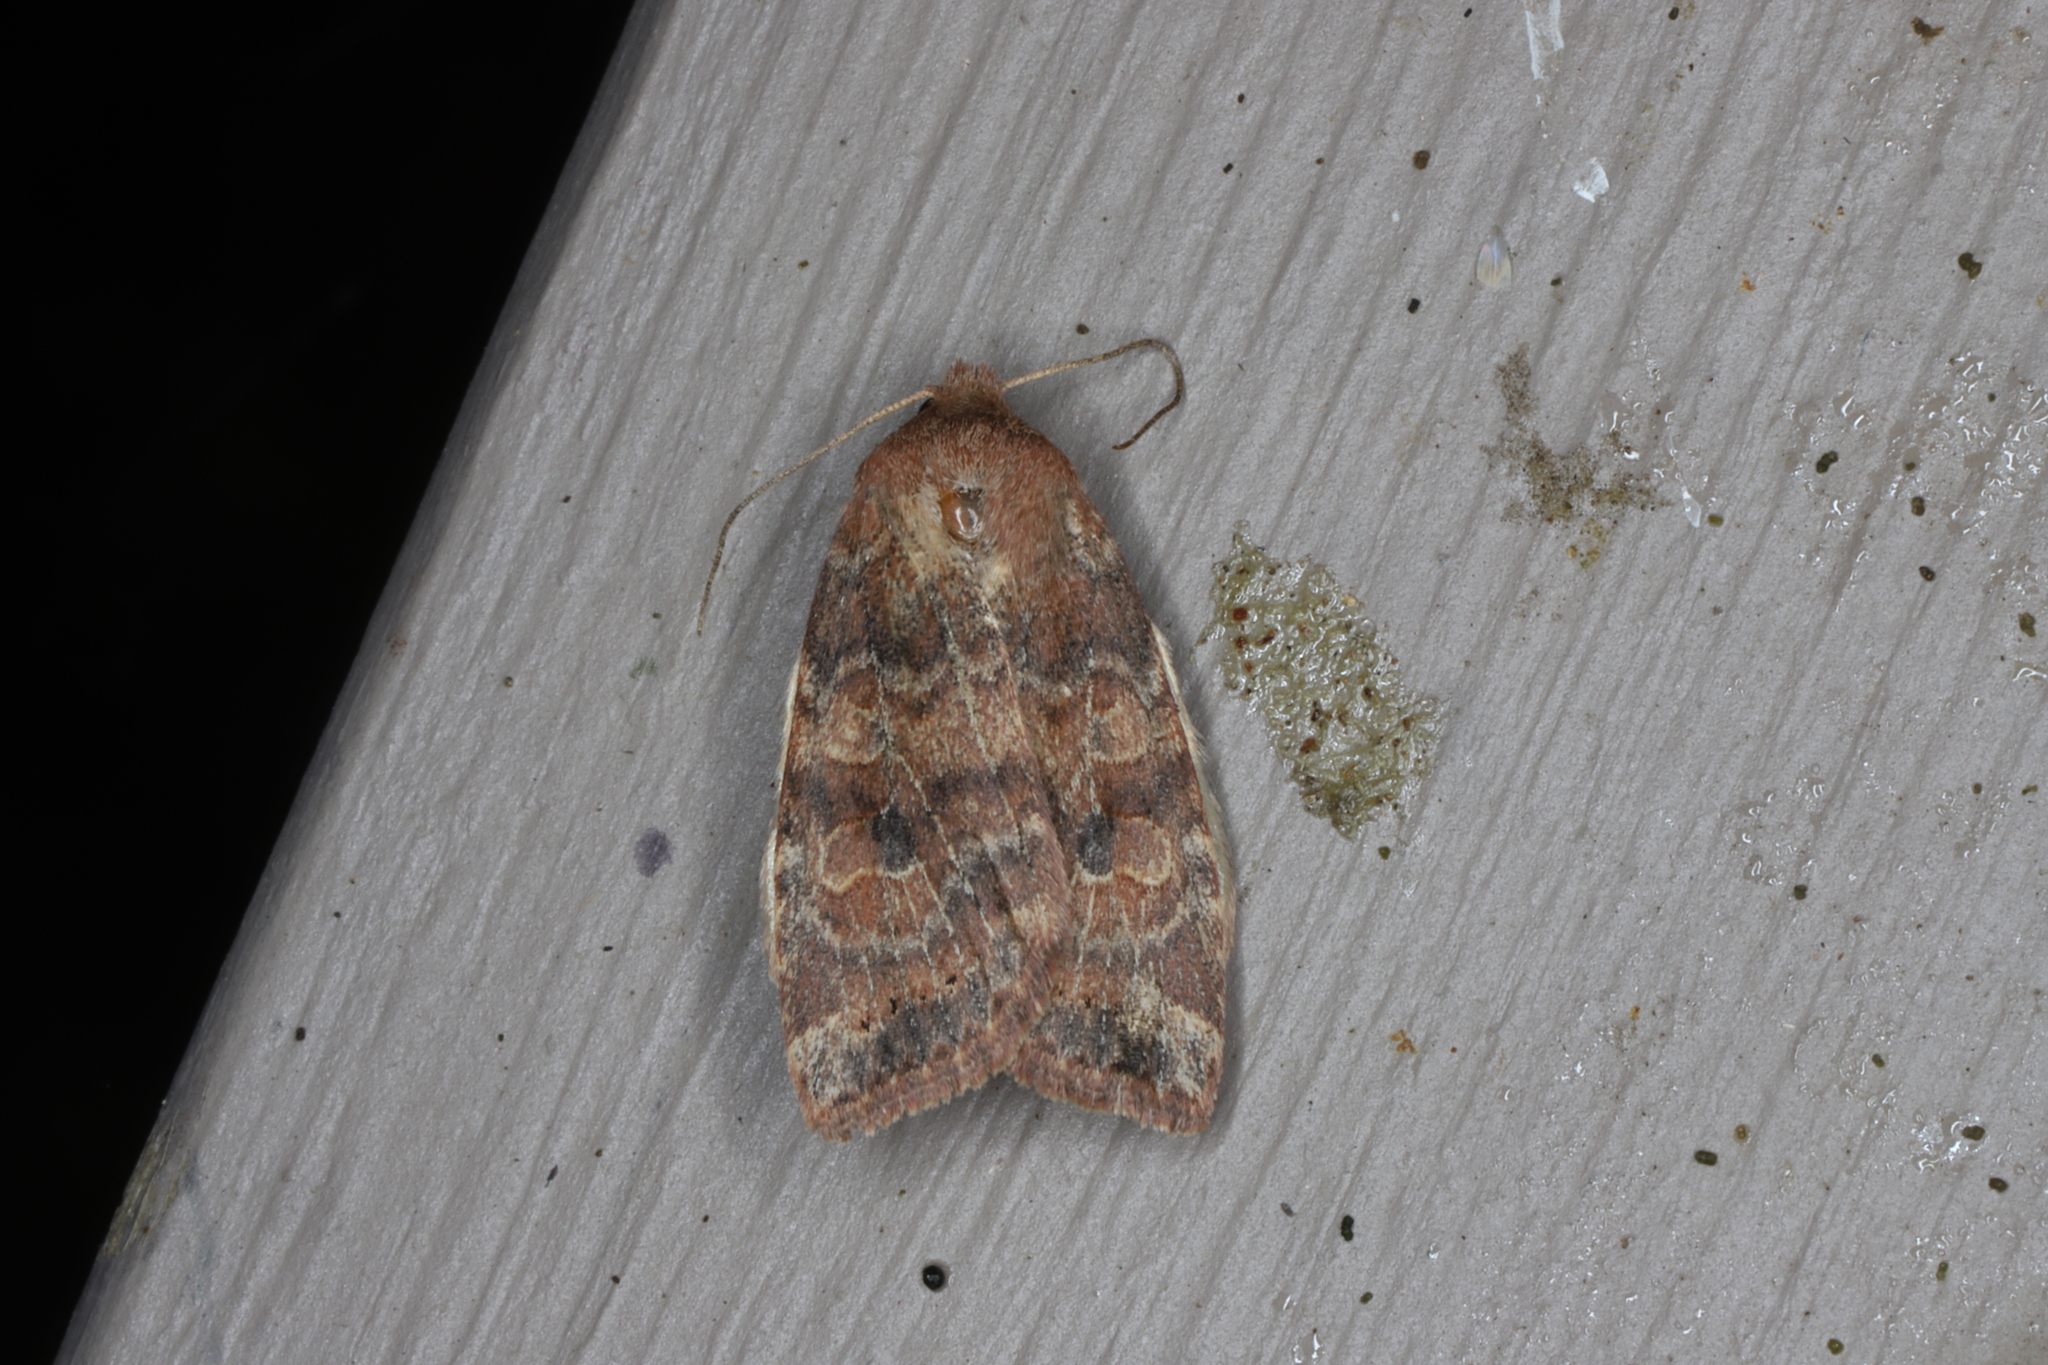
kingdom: Animalia
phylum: Arthropoda
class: Insecta
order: Lepidoptera
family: Noctuidae
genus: Anathix
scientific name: Anathix puta
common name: Puta sallow
